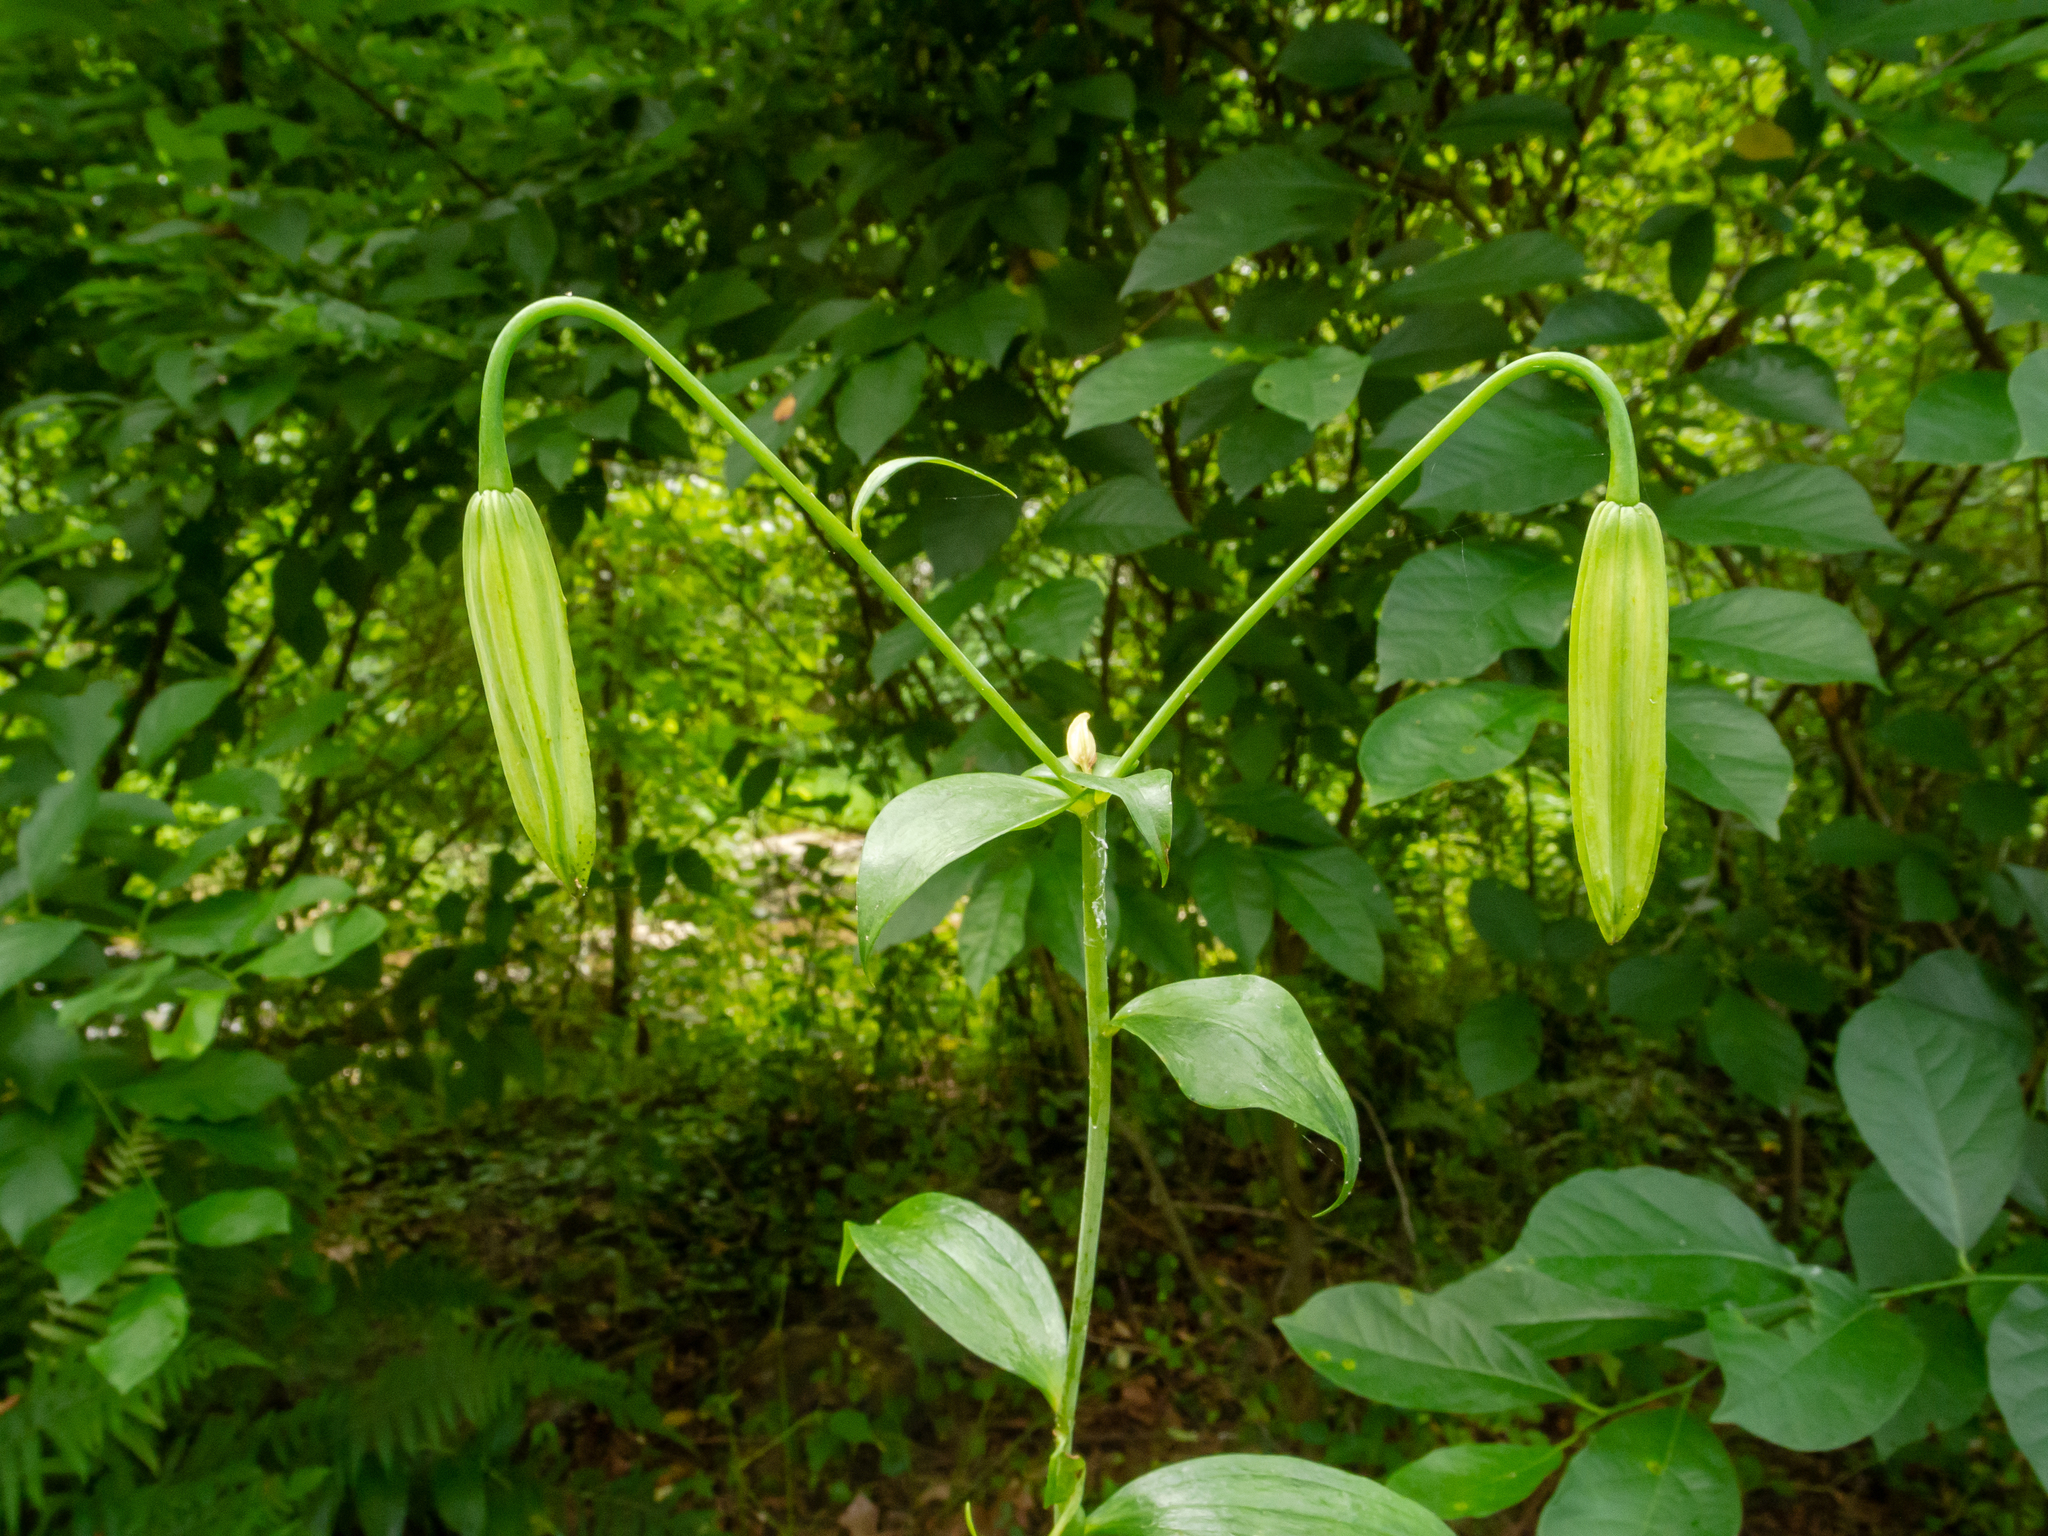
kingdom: Plantae
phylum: Tracheophyta
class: Liliopsida
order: Liliales
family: Liliaceae
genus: Lilium
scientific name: Lilium superbum
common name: American turk's-cap lily
